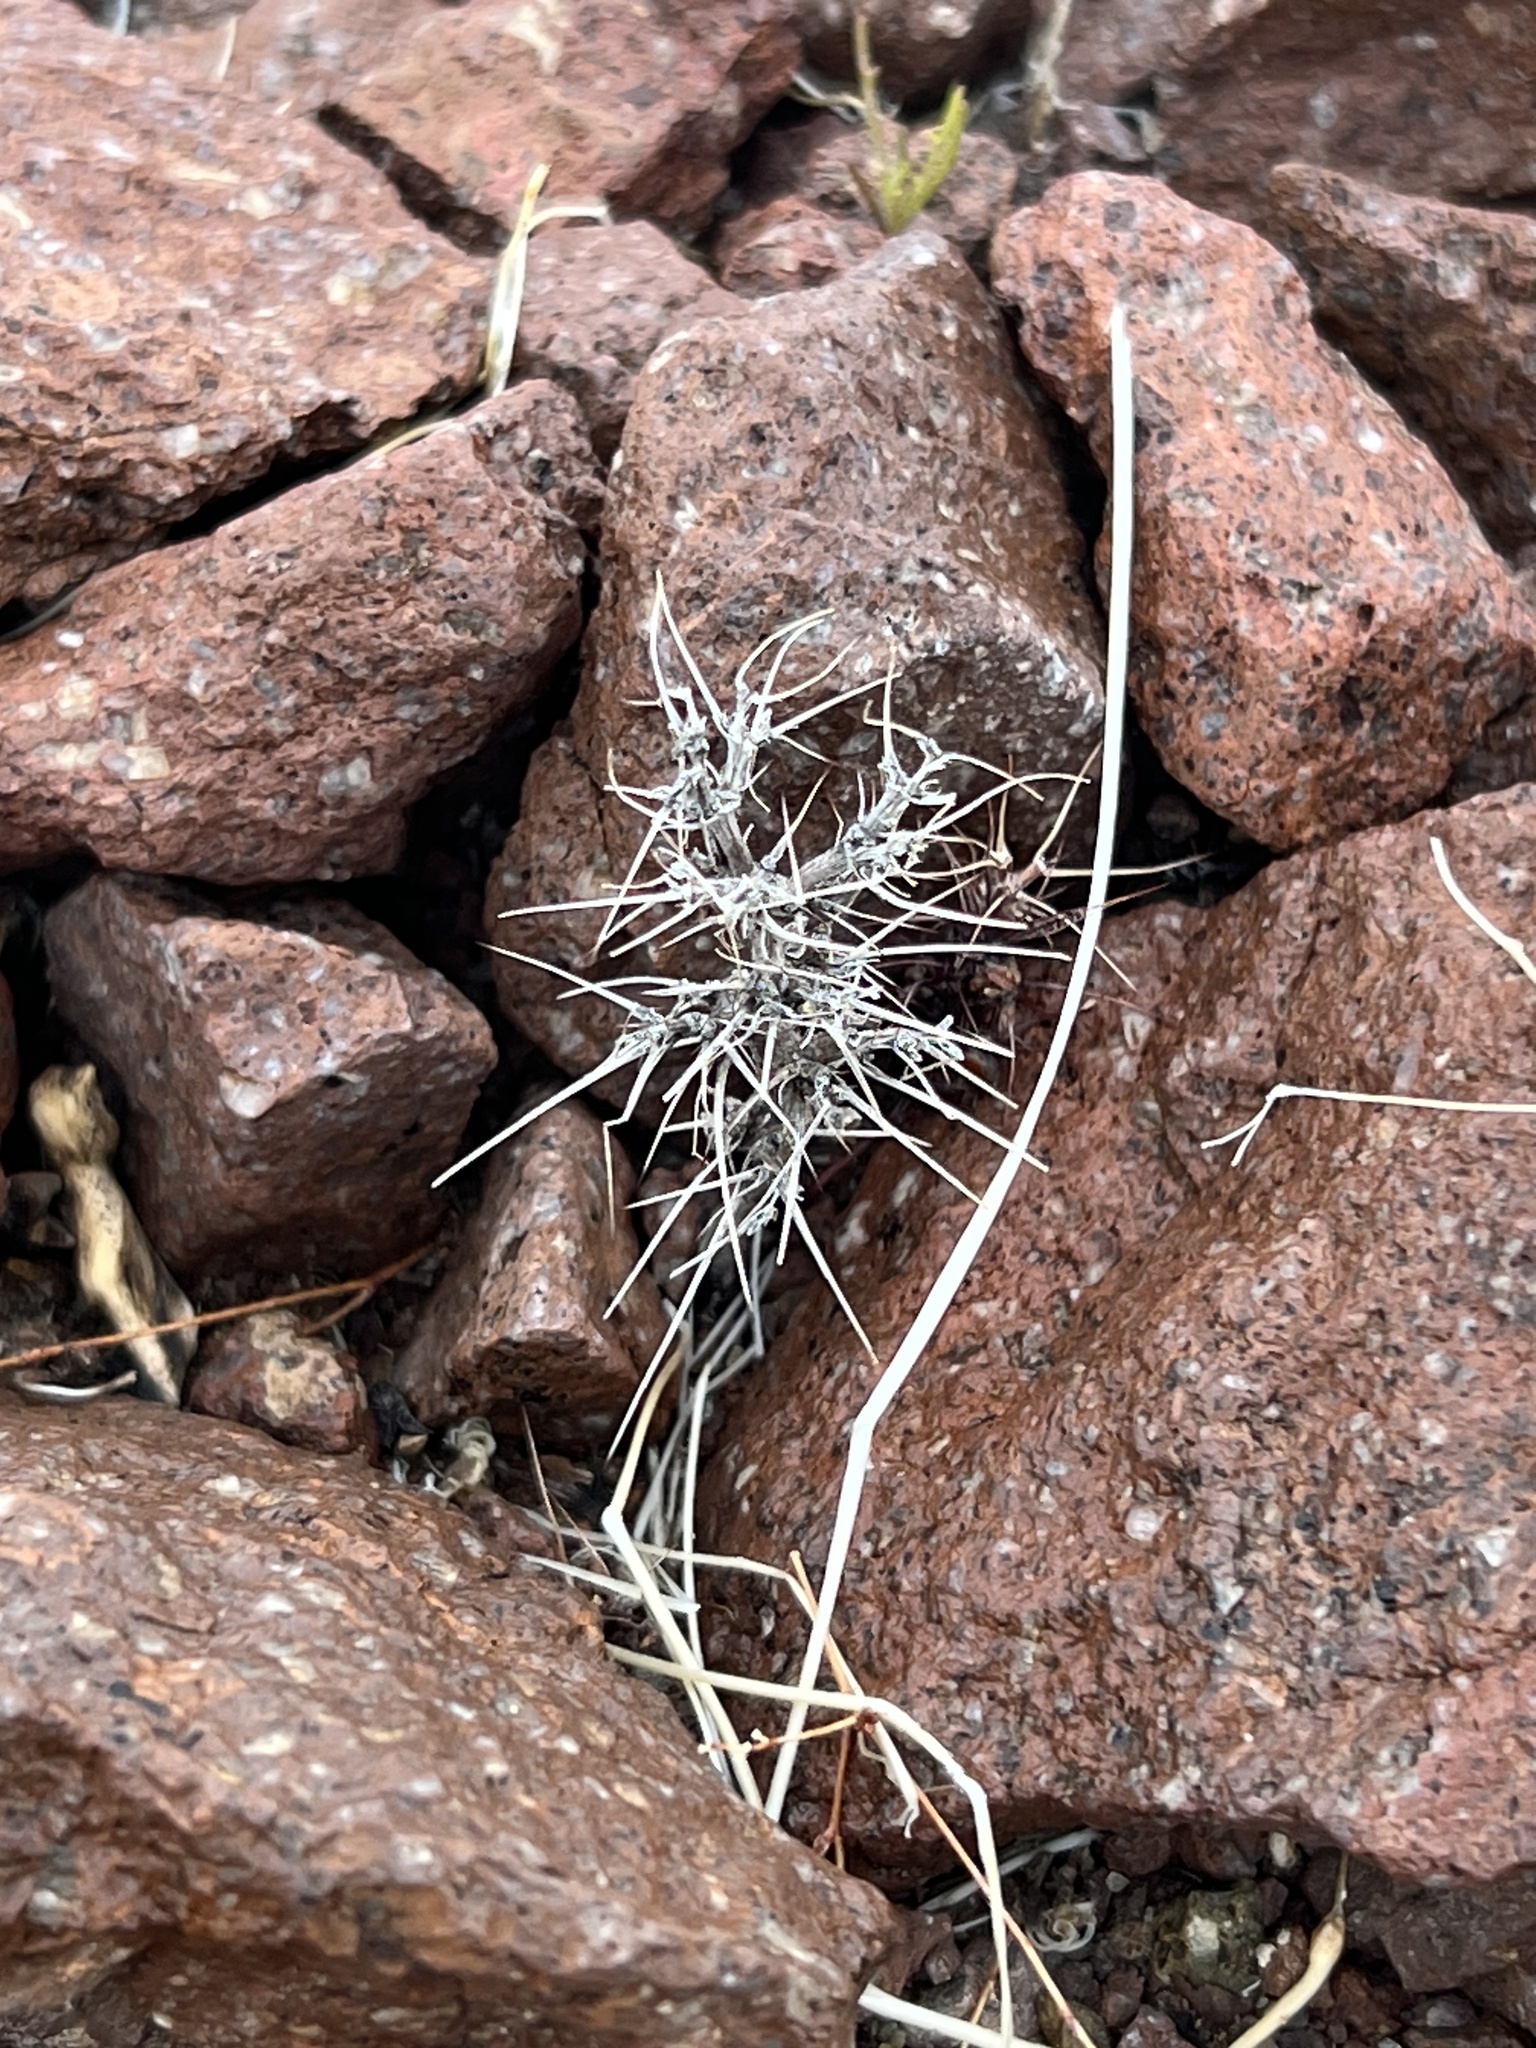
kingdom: Plantae
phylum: Tracheophyta
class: Magnoliopsida
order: Caryophyllales
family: Polygonaceae
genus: Chorizanthe
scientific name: Chorizanthe rigida
